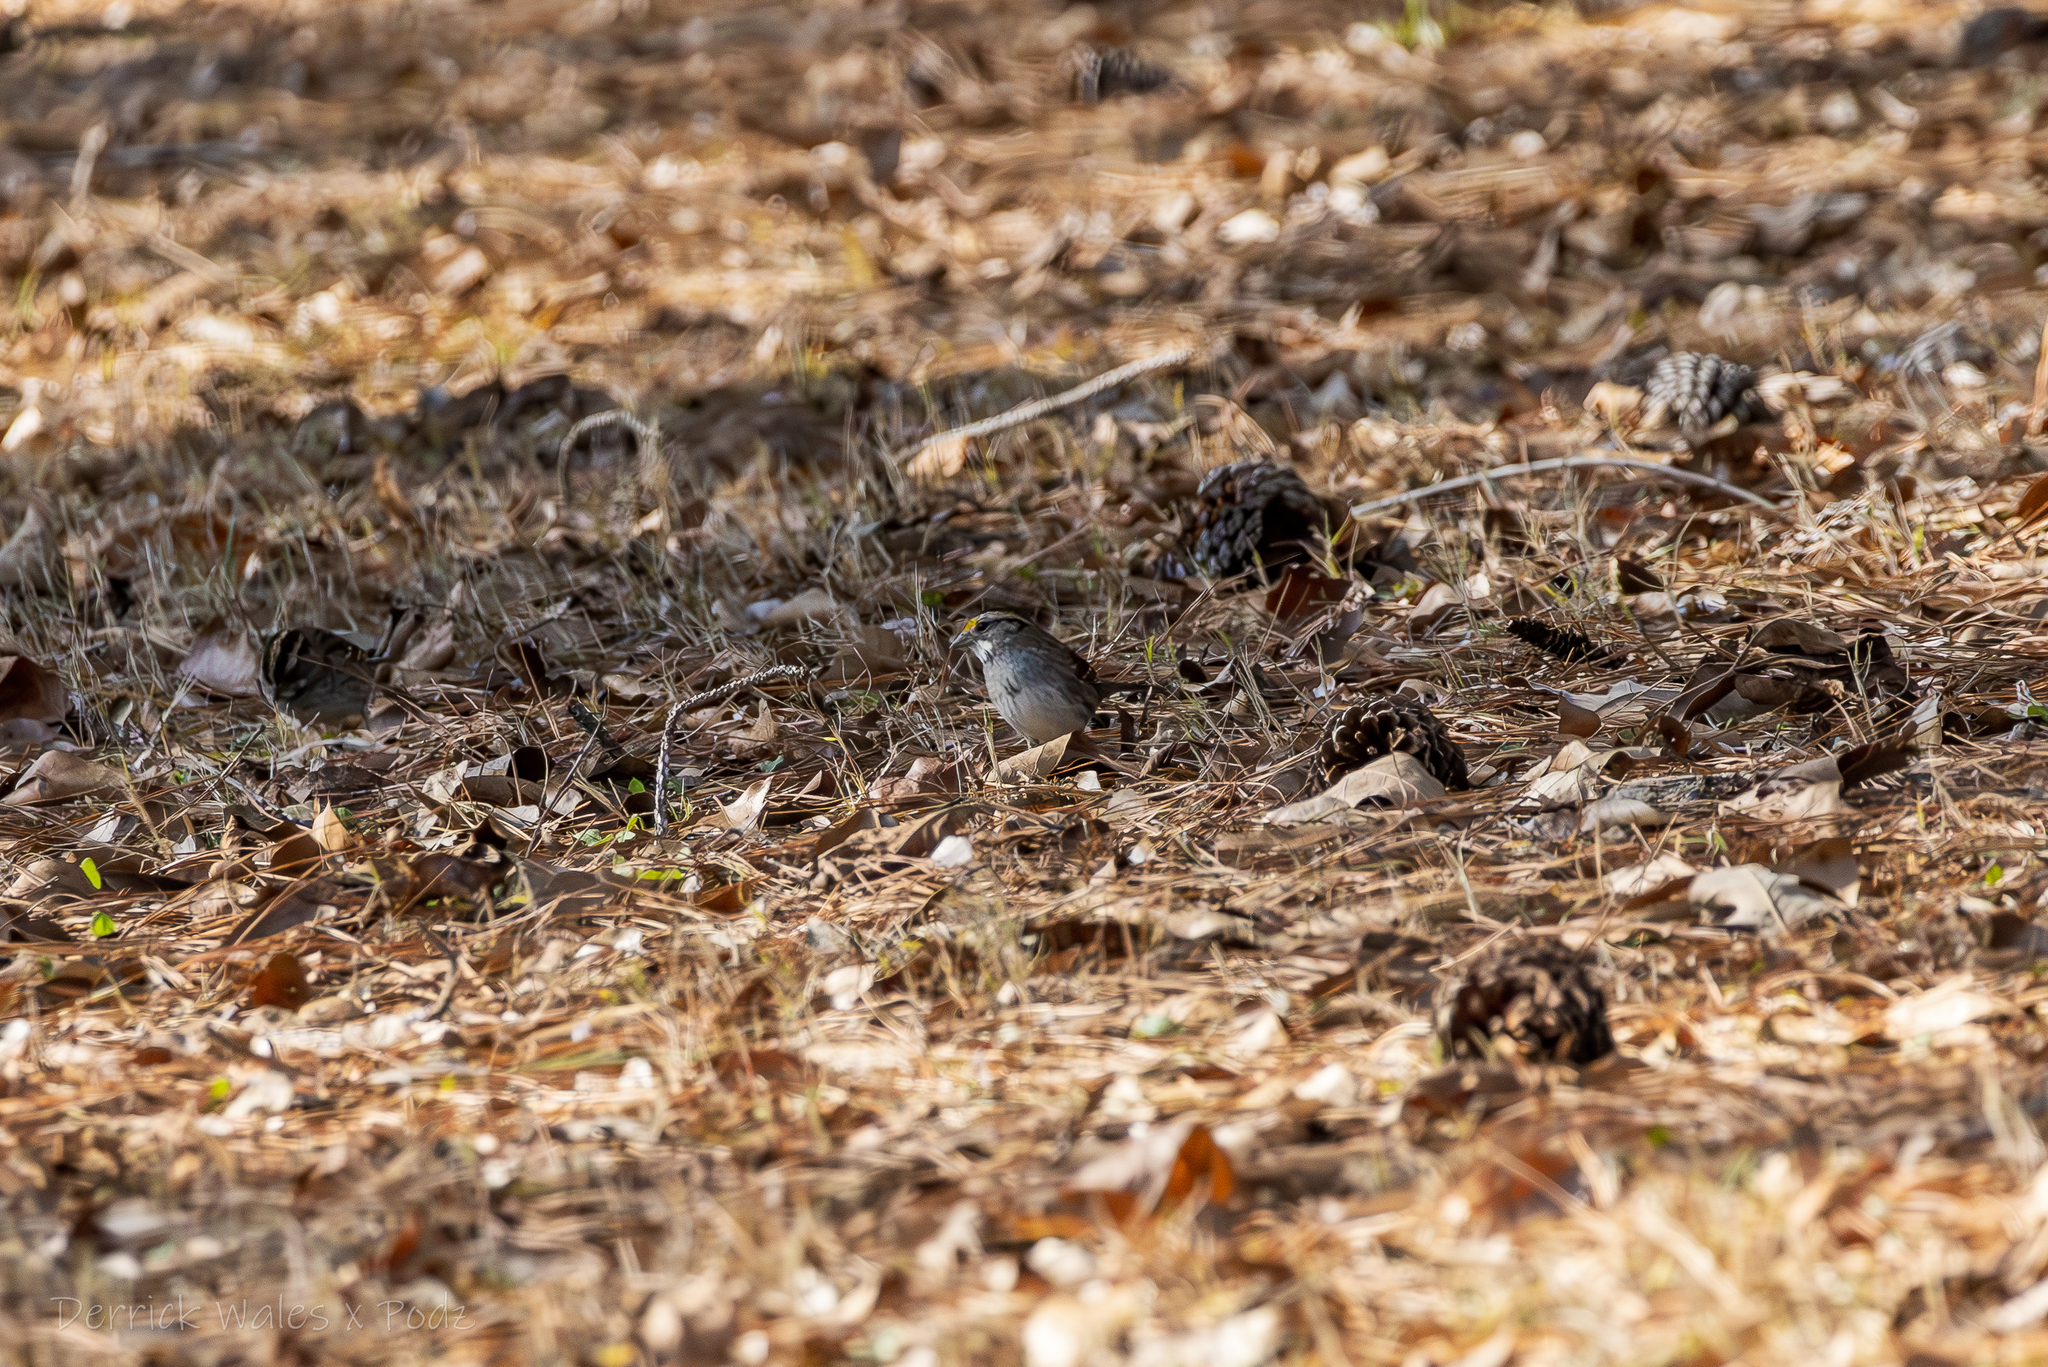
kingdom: Animalia
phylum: Chordata
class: Aves
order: Passeriformes
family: Passerellidae
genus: Zonotrichia
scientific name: Zonotrichia albicollis
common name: White-throated sparrow
